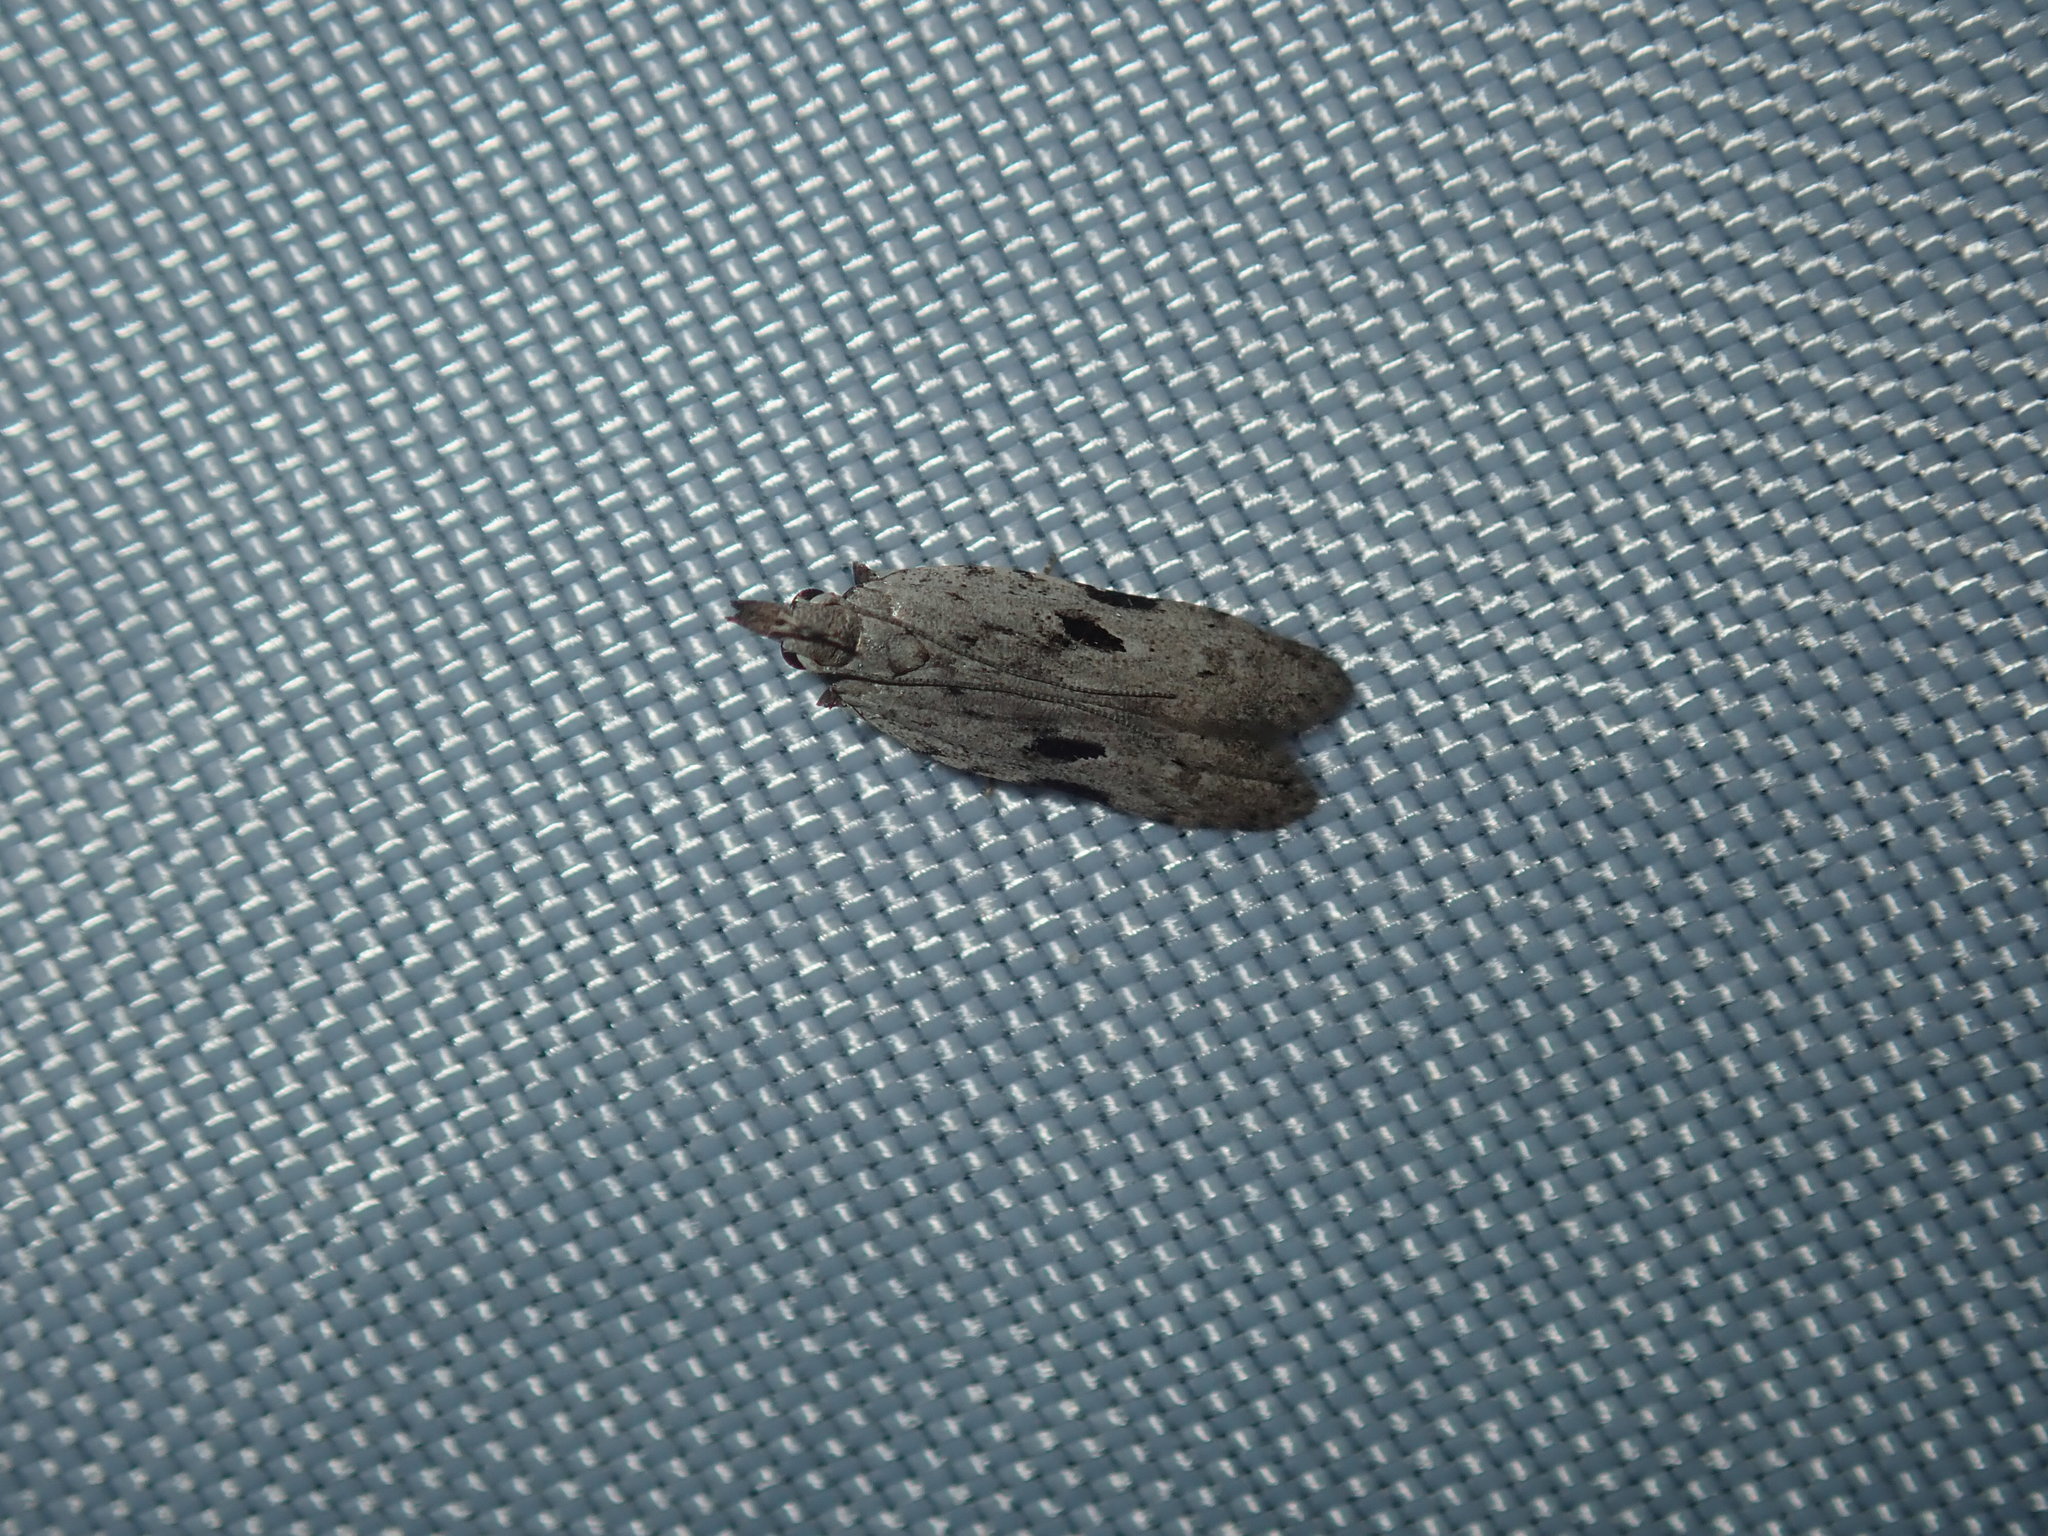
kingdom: Animalia
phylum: Arthropoda
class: Insecta
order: Lepidoptera
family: Gelechiidae
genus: Anarsia
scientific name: Anarsia epiula
